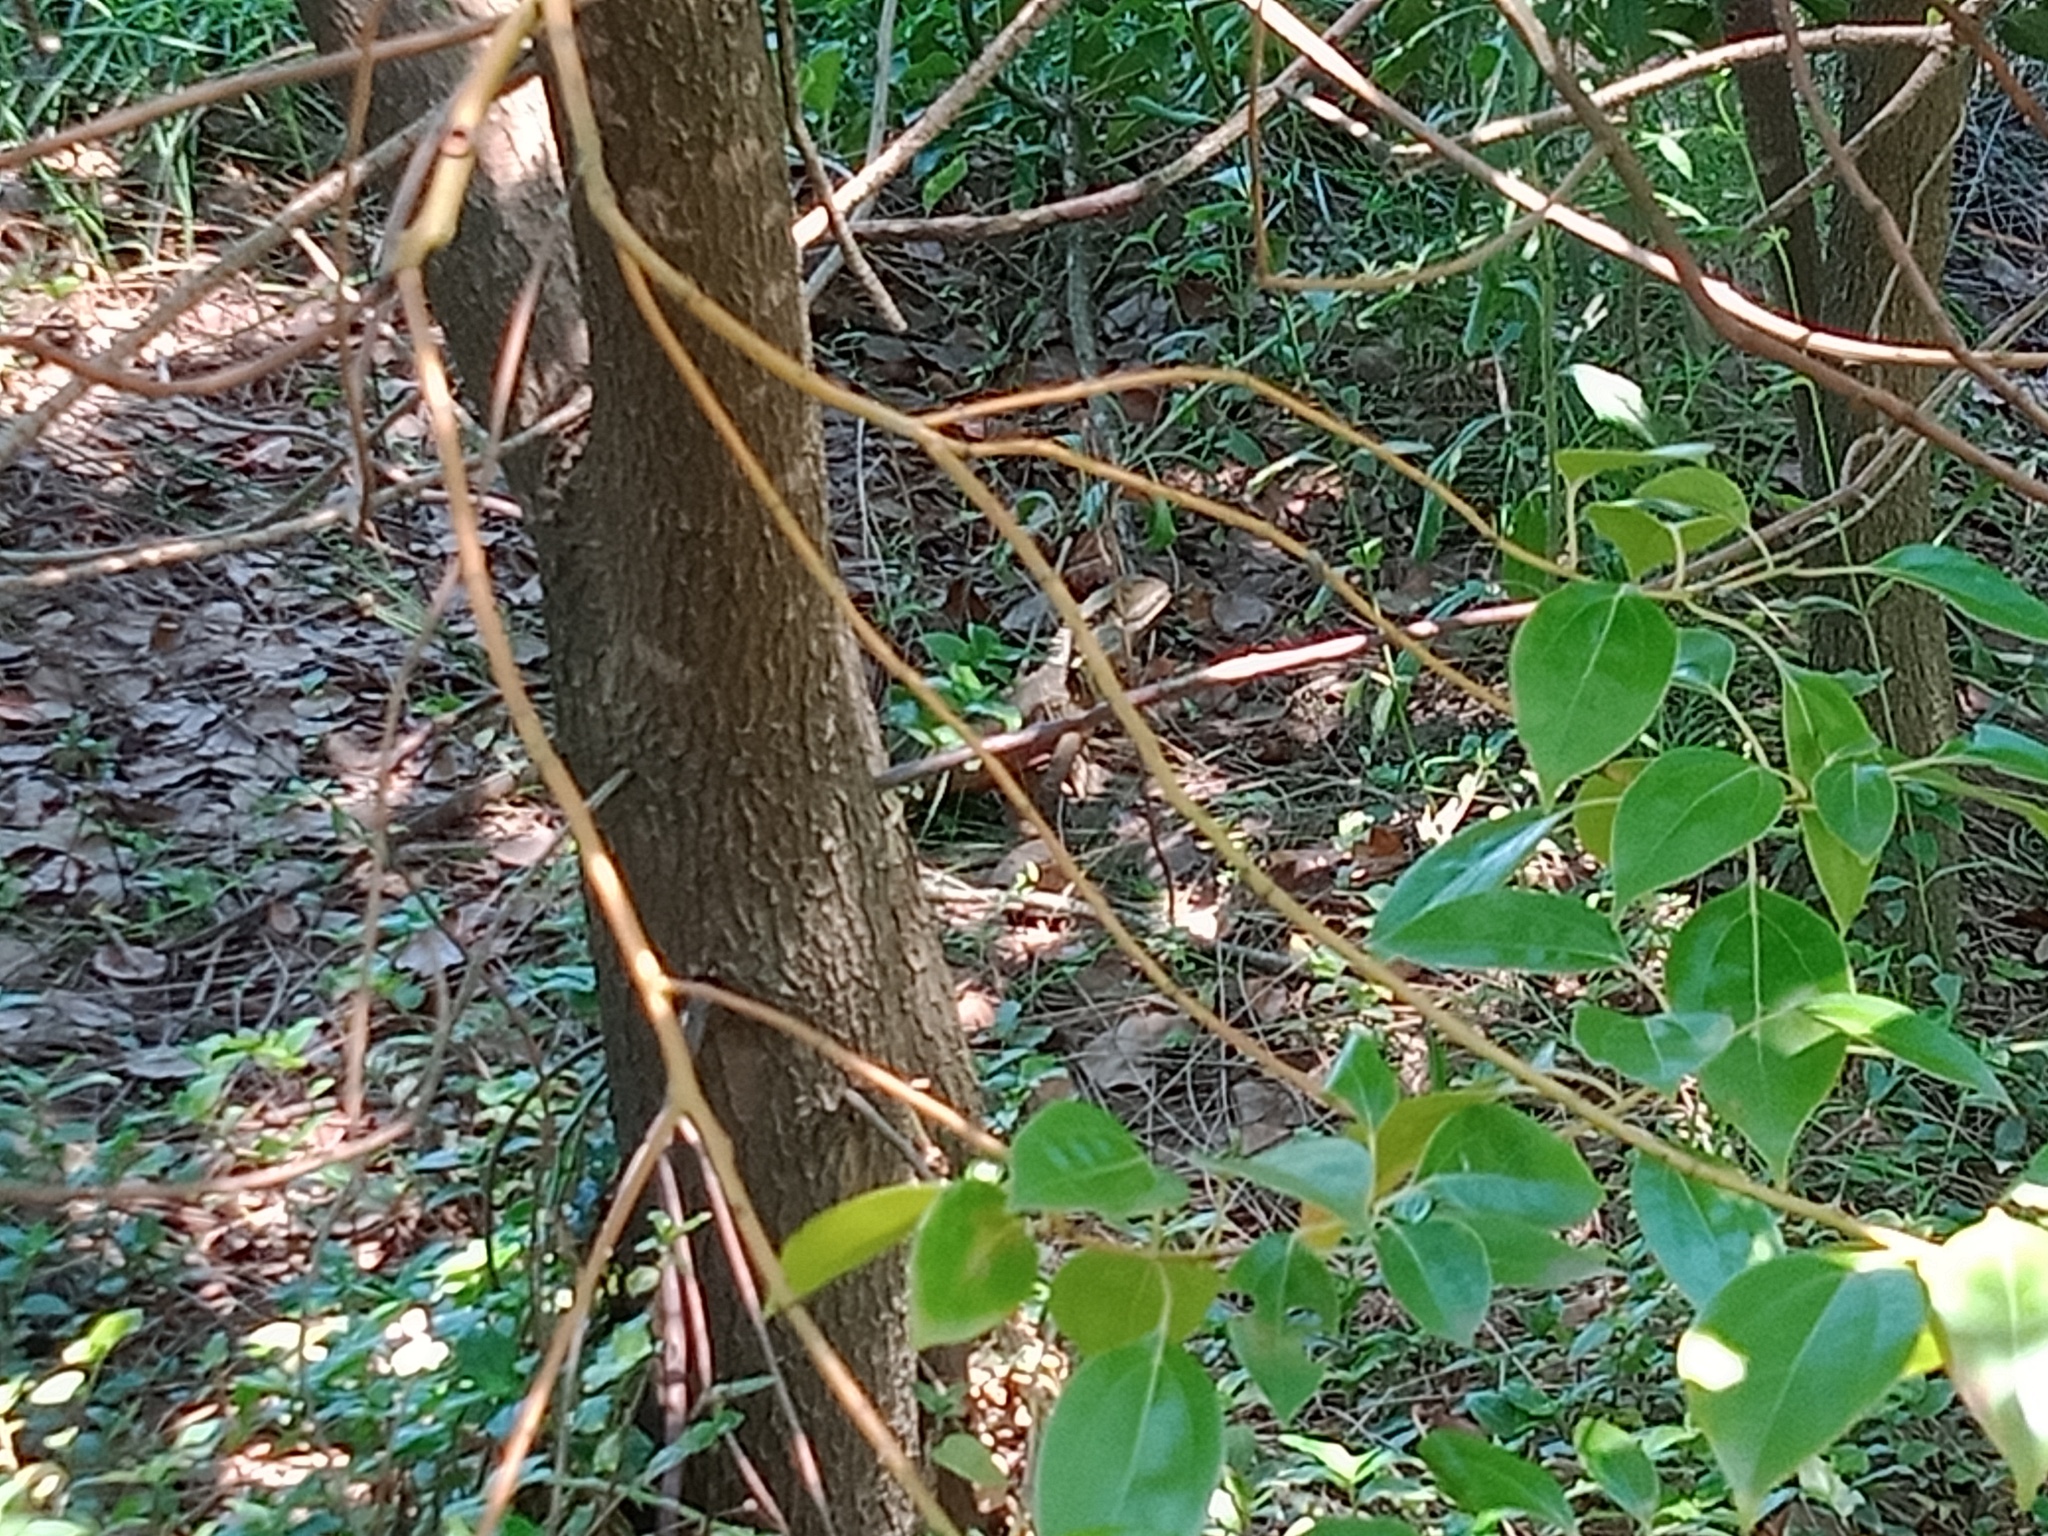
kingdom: Animalia
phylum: Chordata
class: Squamata
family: Agamidae
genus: Intellagama
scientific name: Intellagama lesueurii
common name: Eastern water dragon
